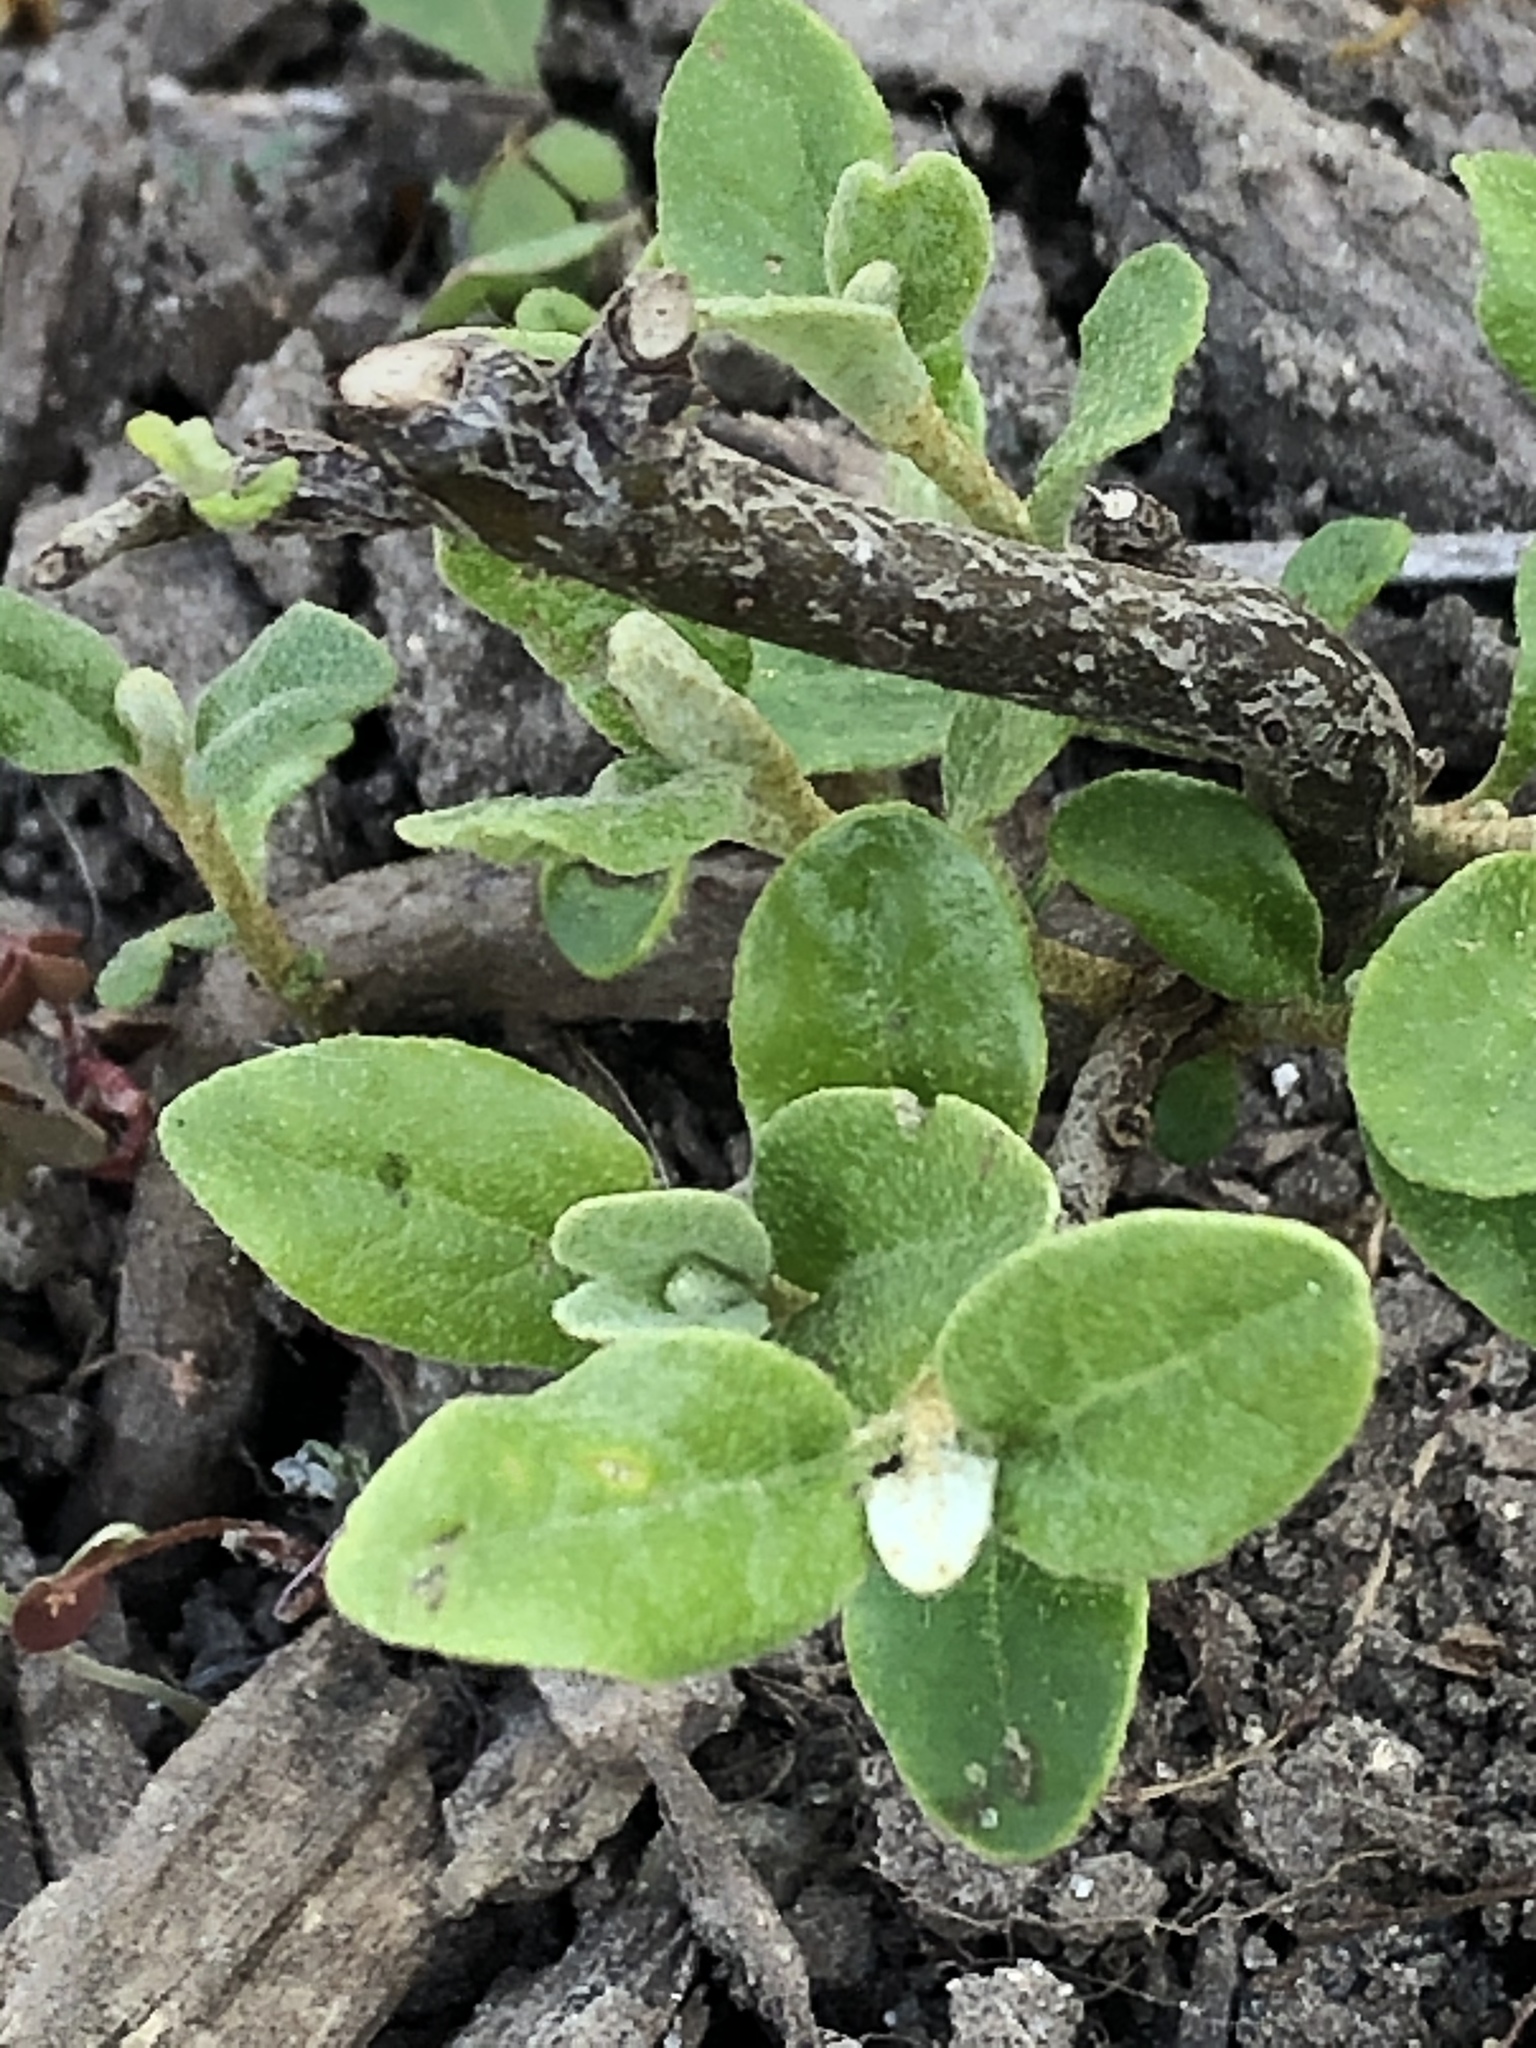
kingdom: Plantae
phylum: Tracheophyta
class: Magnoliopsida
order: Rosales
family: Elaeagnaceae
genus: Shepherdia
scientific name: Shepherdia canadensis
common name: Soapberry
